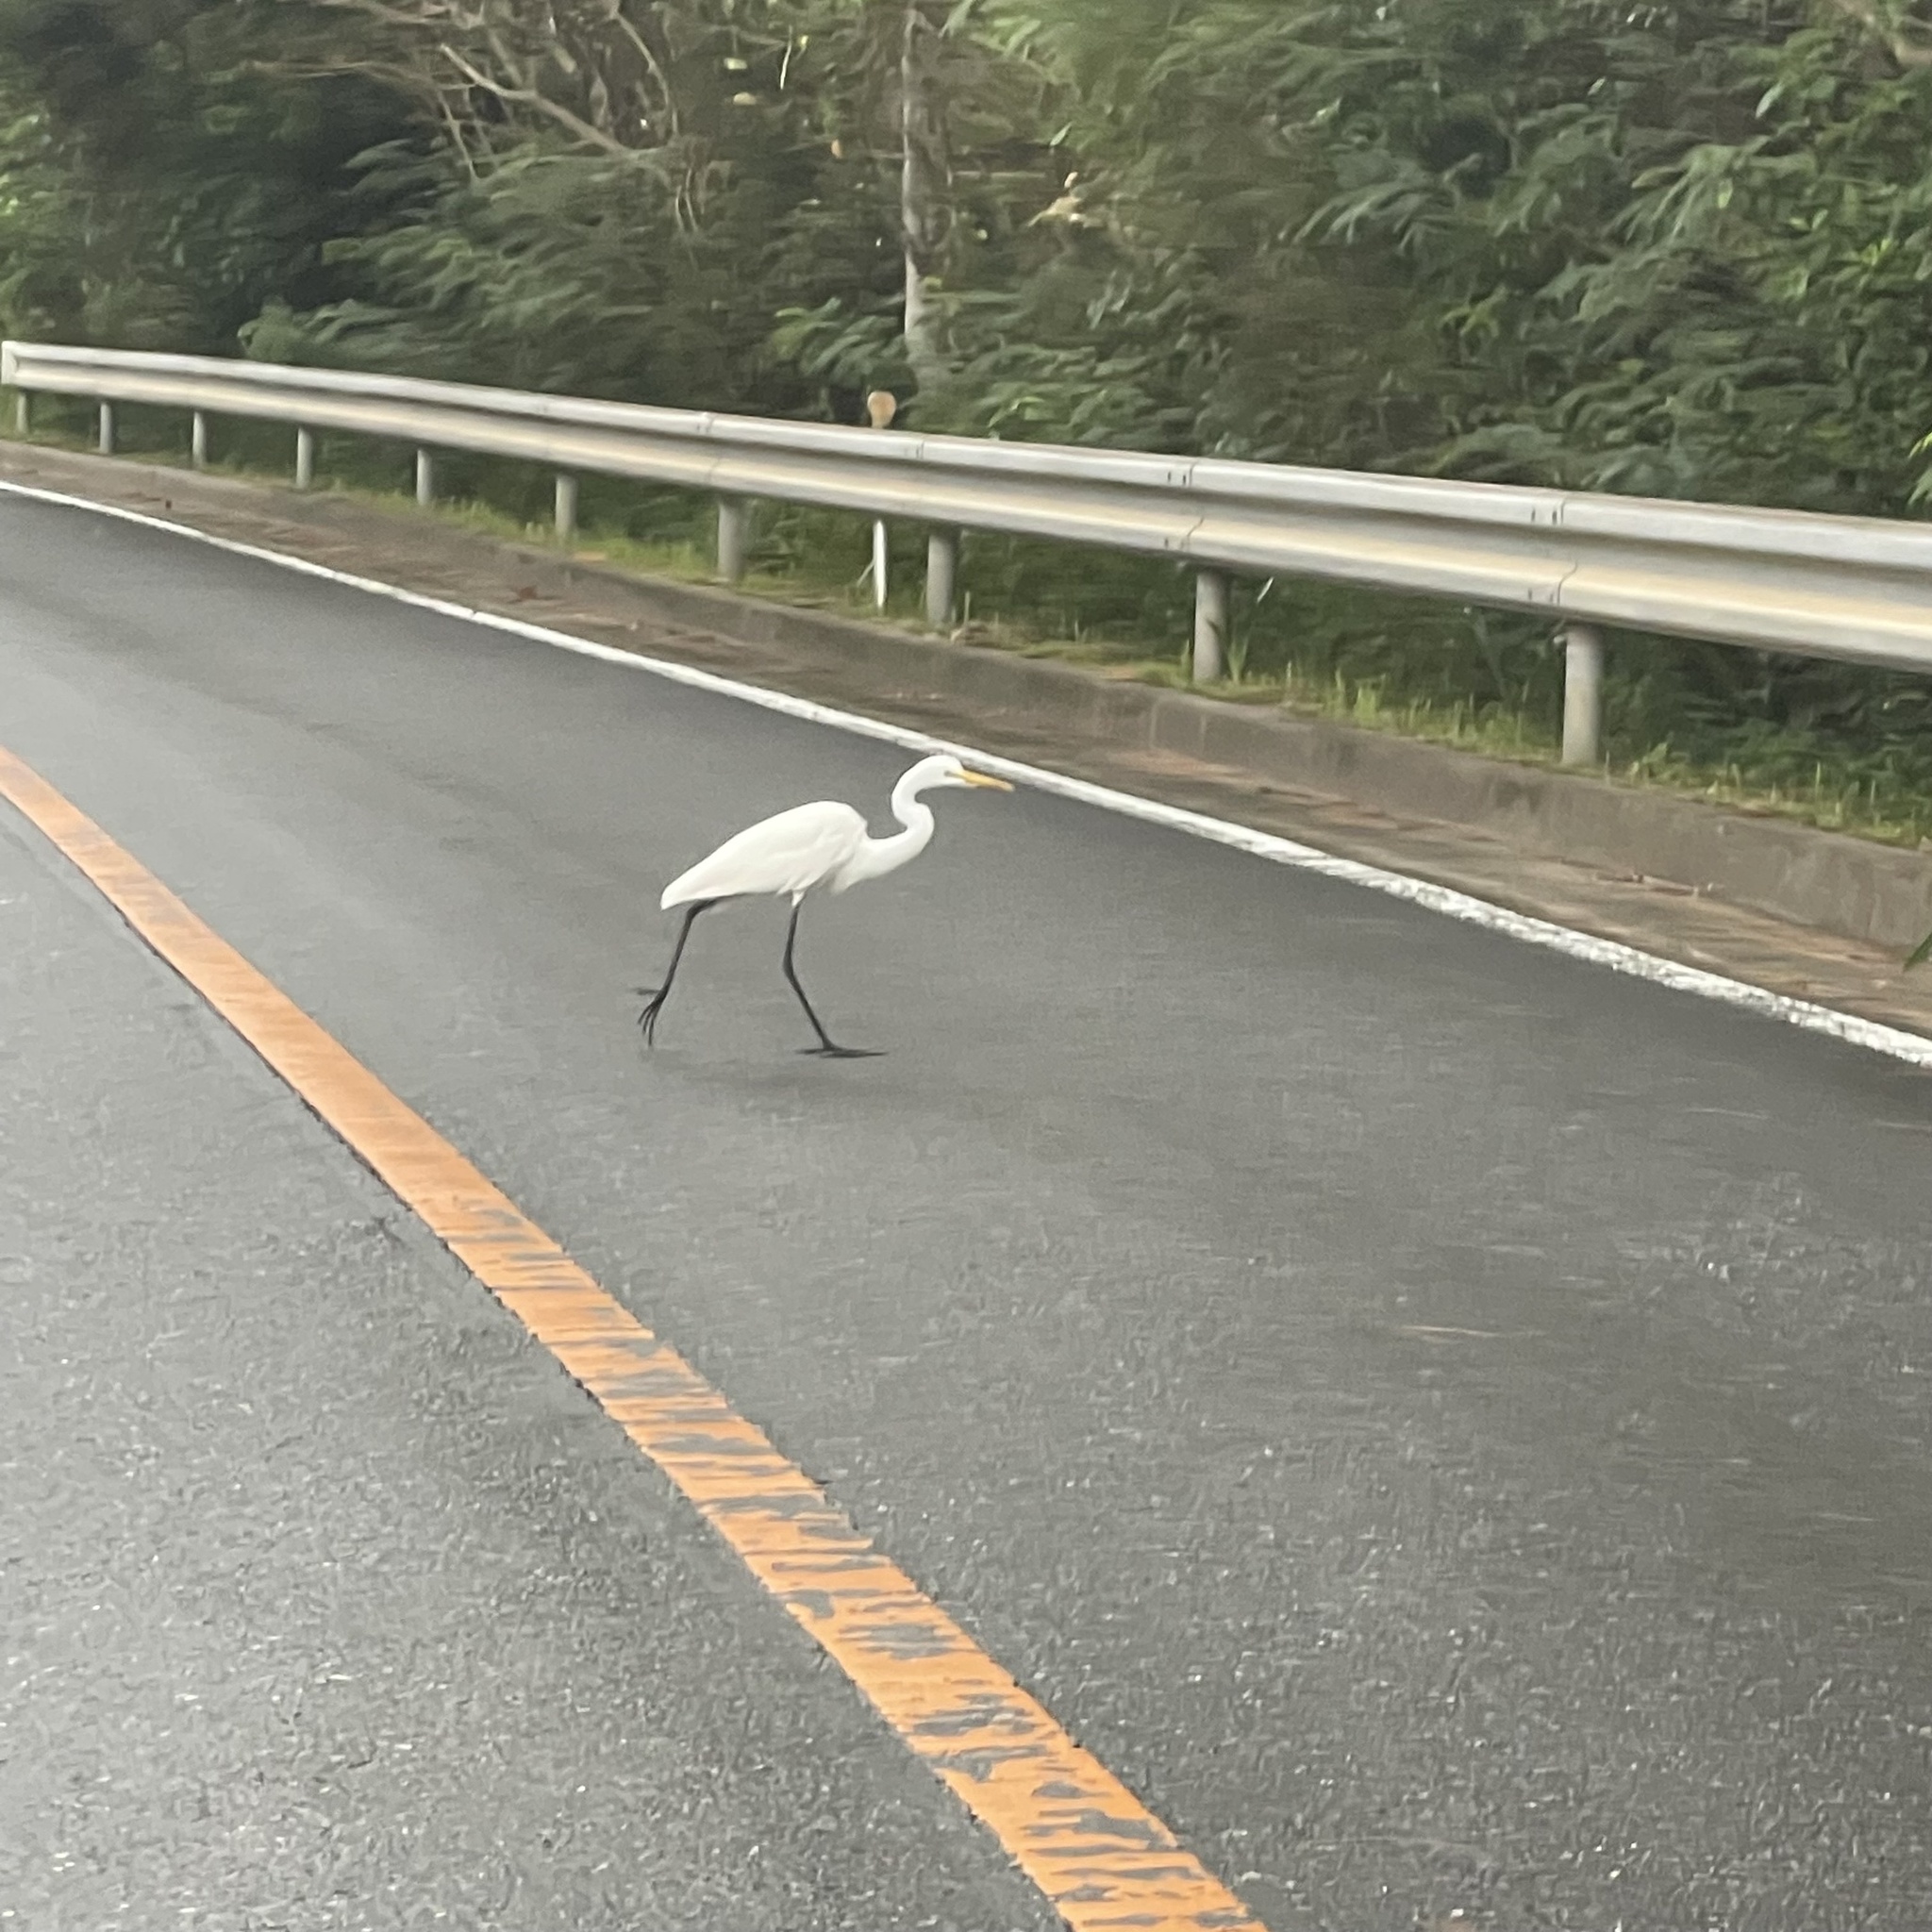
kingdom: Animalia
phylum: Chordata
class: Aves
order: Pelecaniformes
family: Ardeidae
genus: Ardea
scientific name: Ardea modesta
